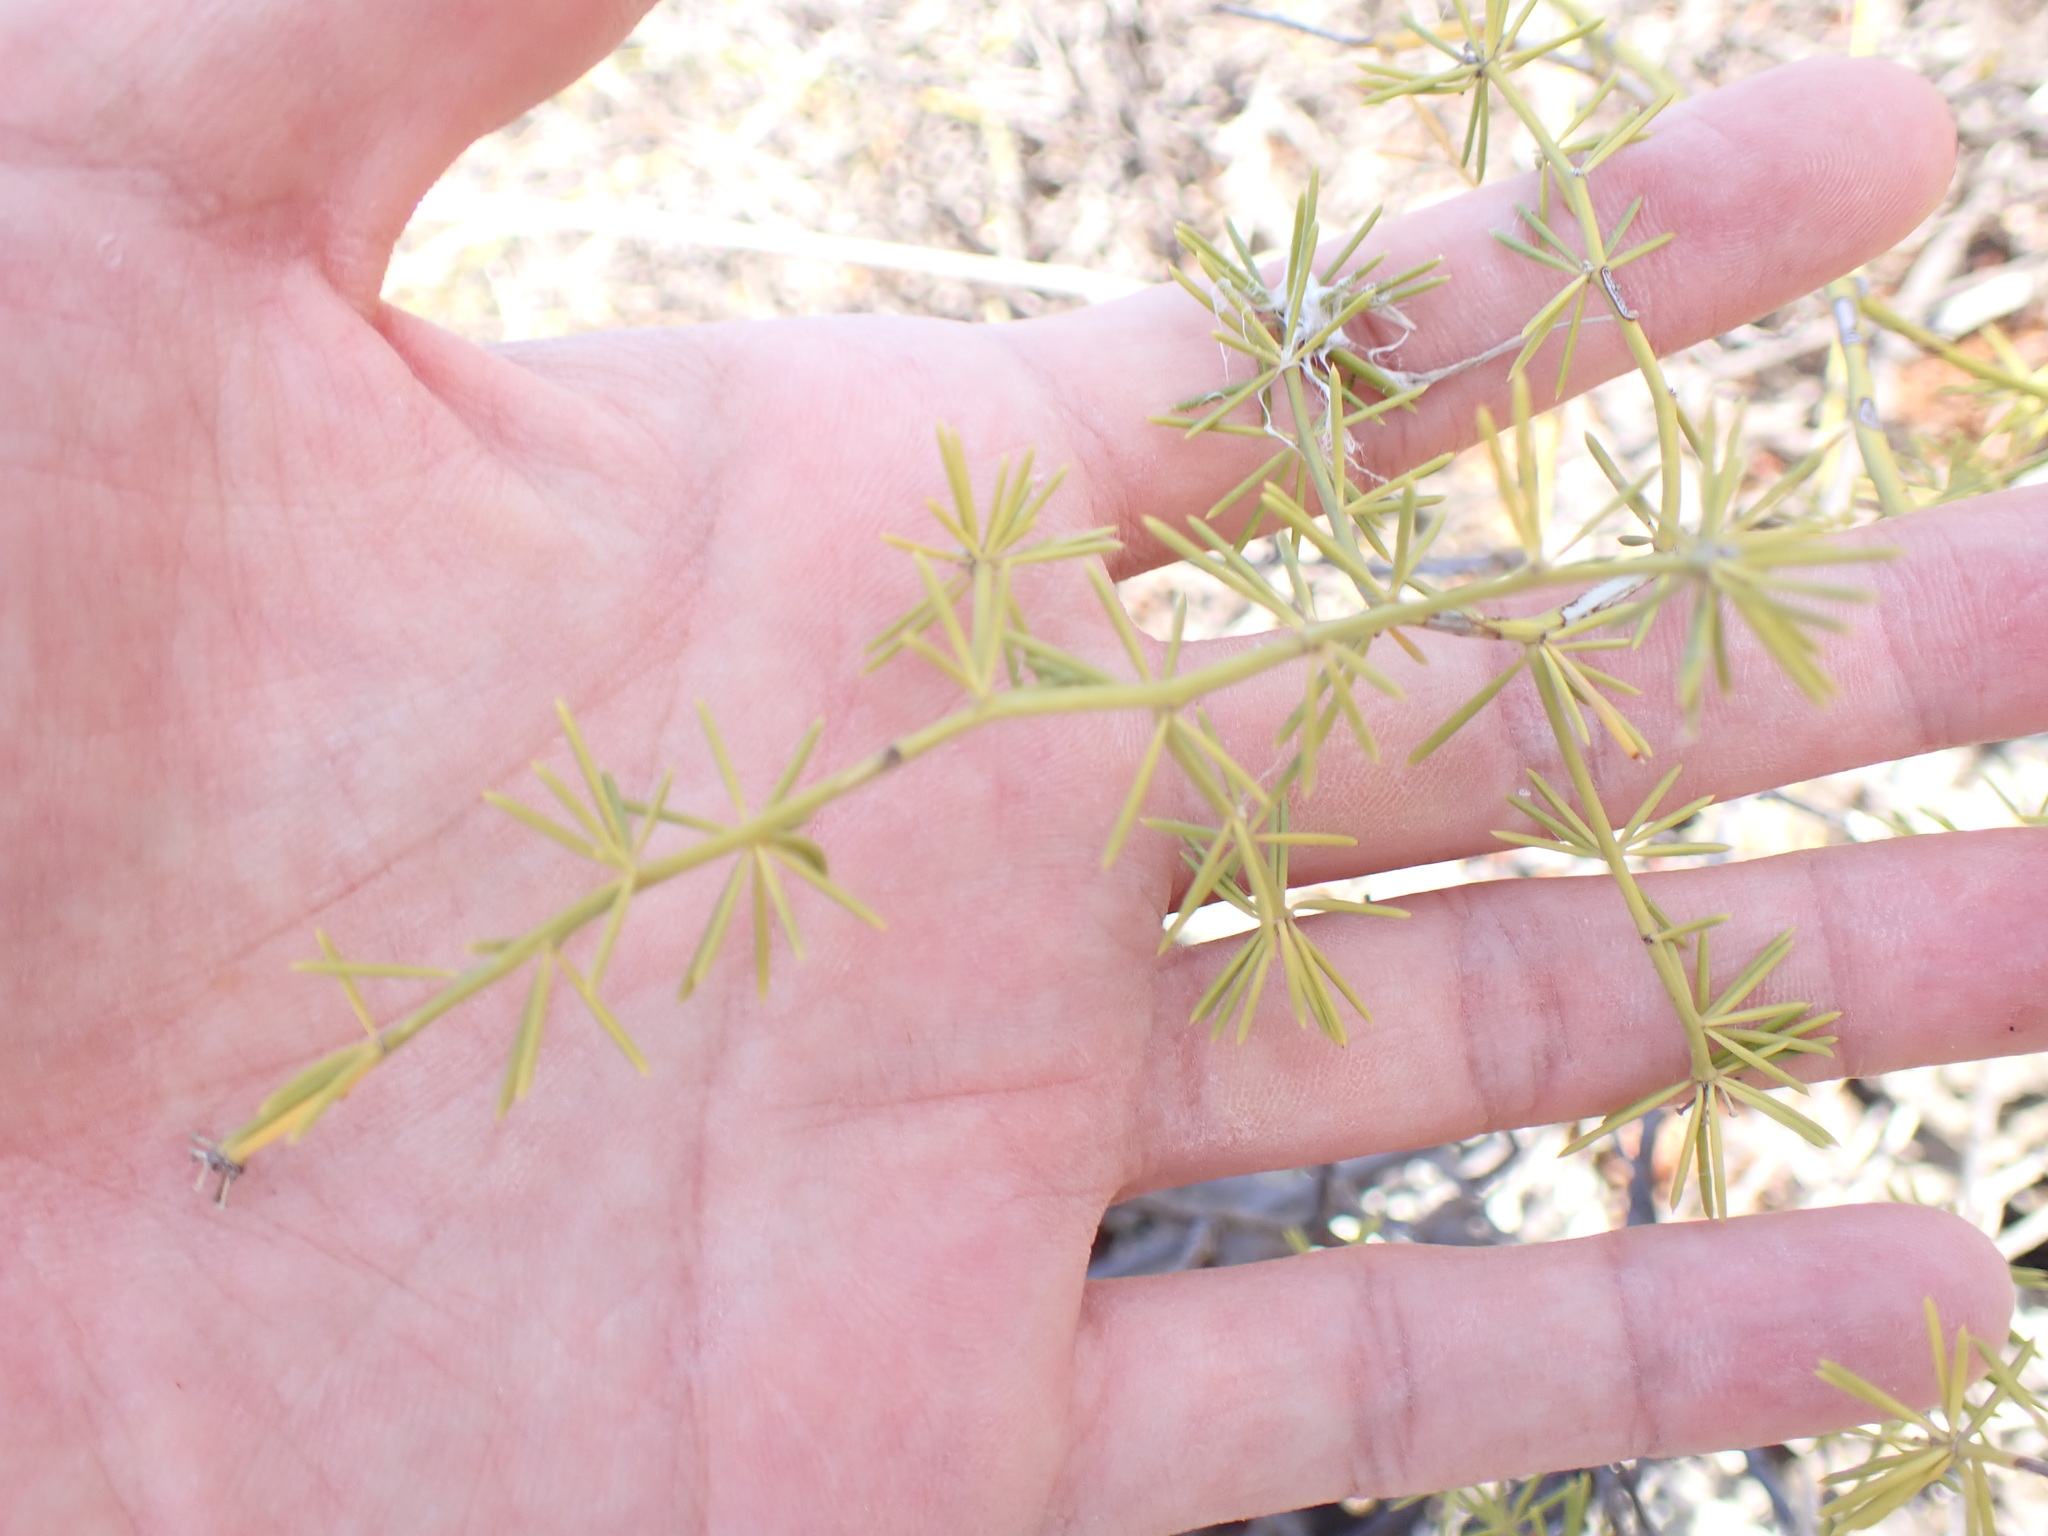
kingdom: Plantae
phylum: Tracheophyta
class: Liliopsida
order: Asparagales
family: Asparagaceae
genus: Asparagus
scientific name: Asparagus umbellatus
